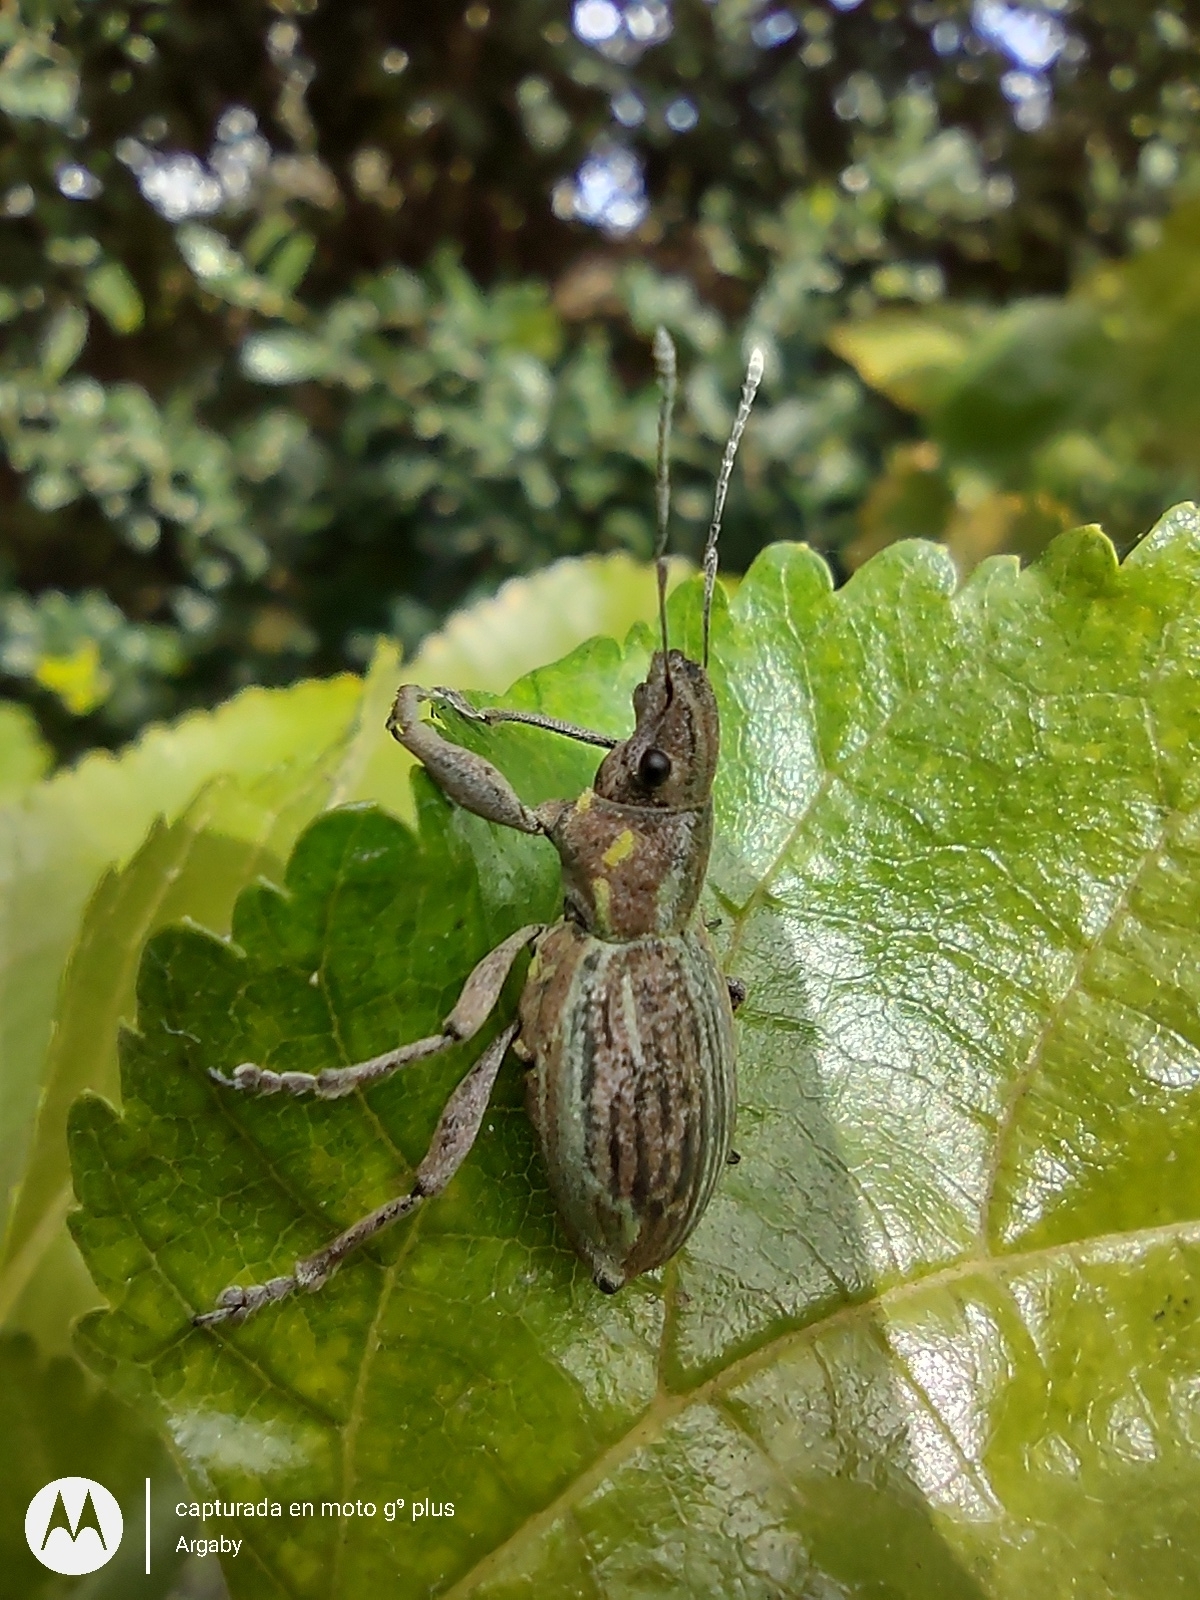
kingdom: Animalia
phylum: Arthropoda
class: Insecta
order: Coleoptera
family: Curculionidae
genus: Naupactus
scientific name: Naupactus xanthographus
